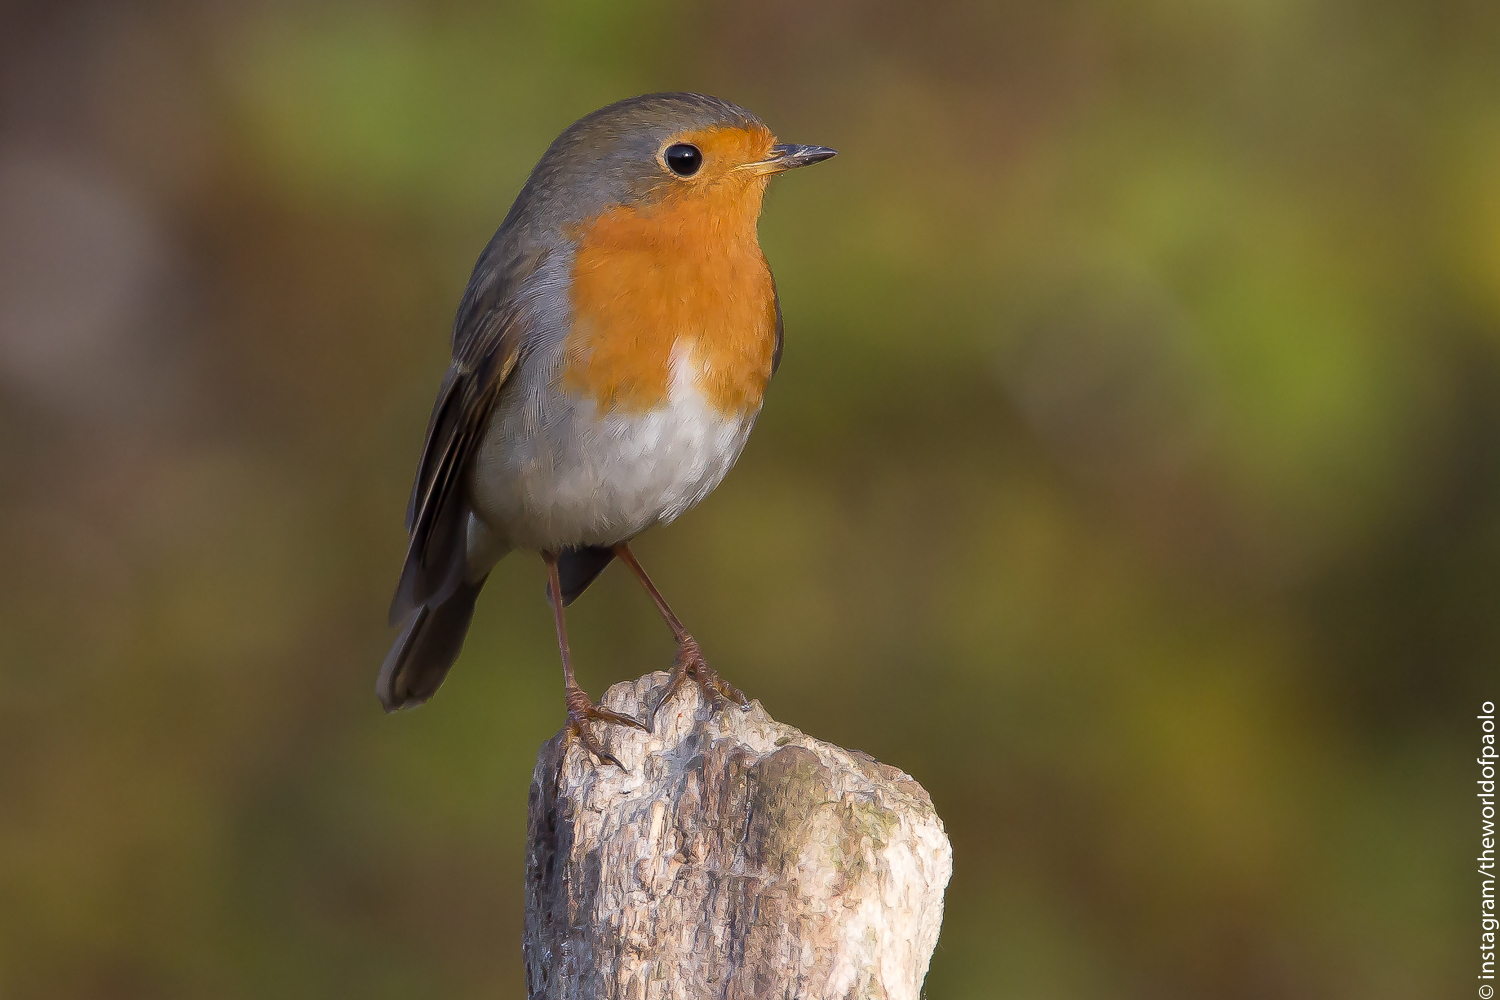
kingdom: Animalia
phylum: Chordata
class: Aves
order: Passeriformes
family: Muscicapidae
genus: Erithacus
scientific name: Erithacus rubecula
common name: European robin
